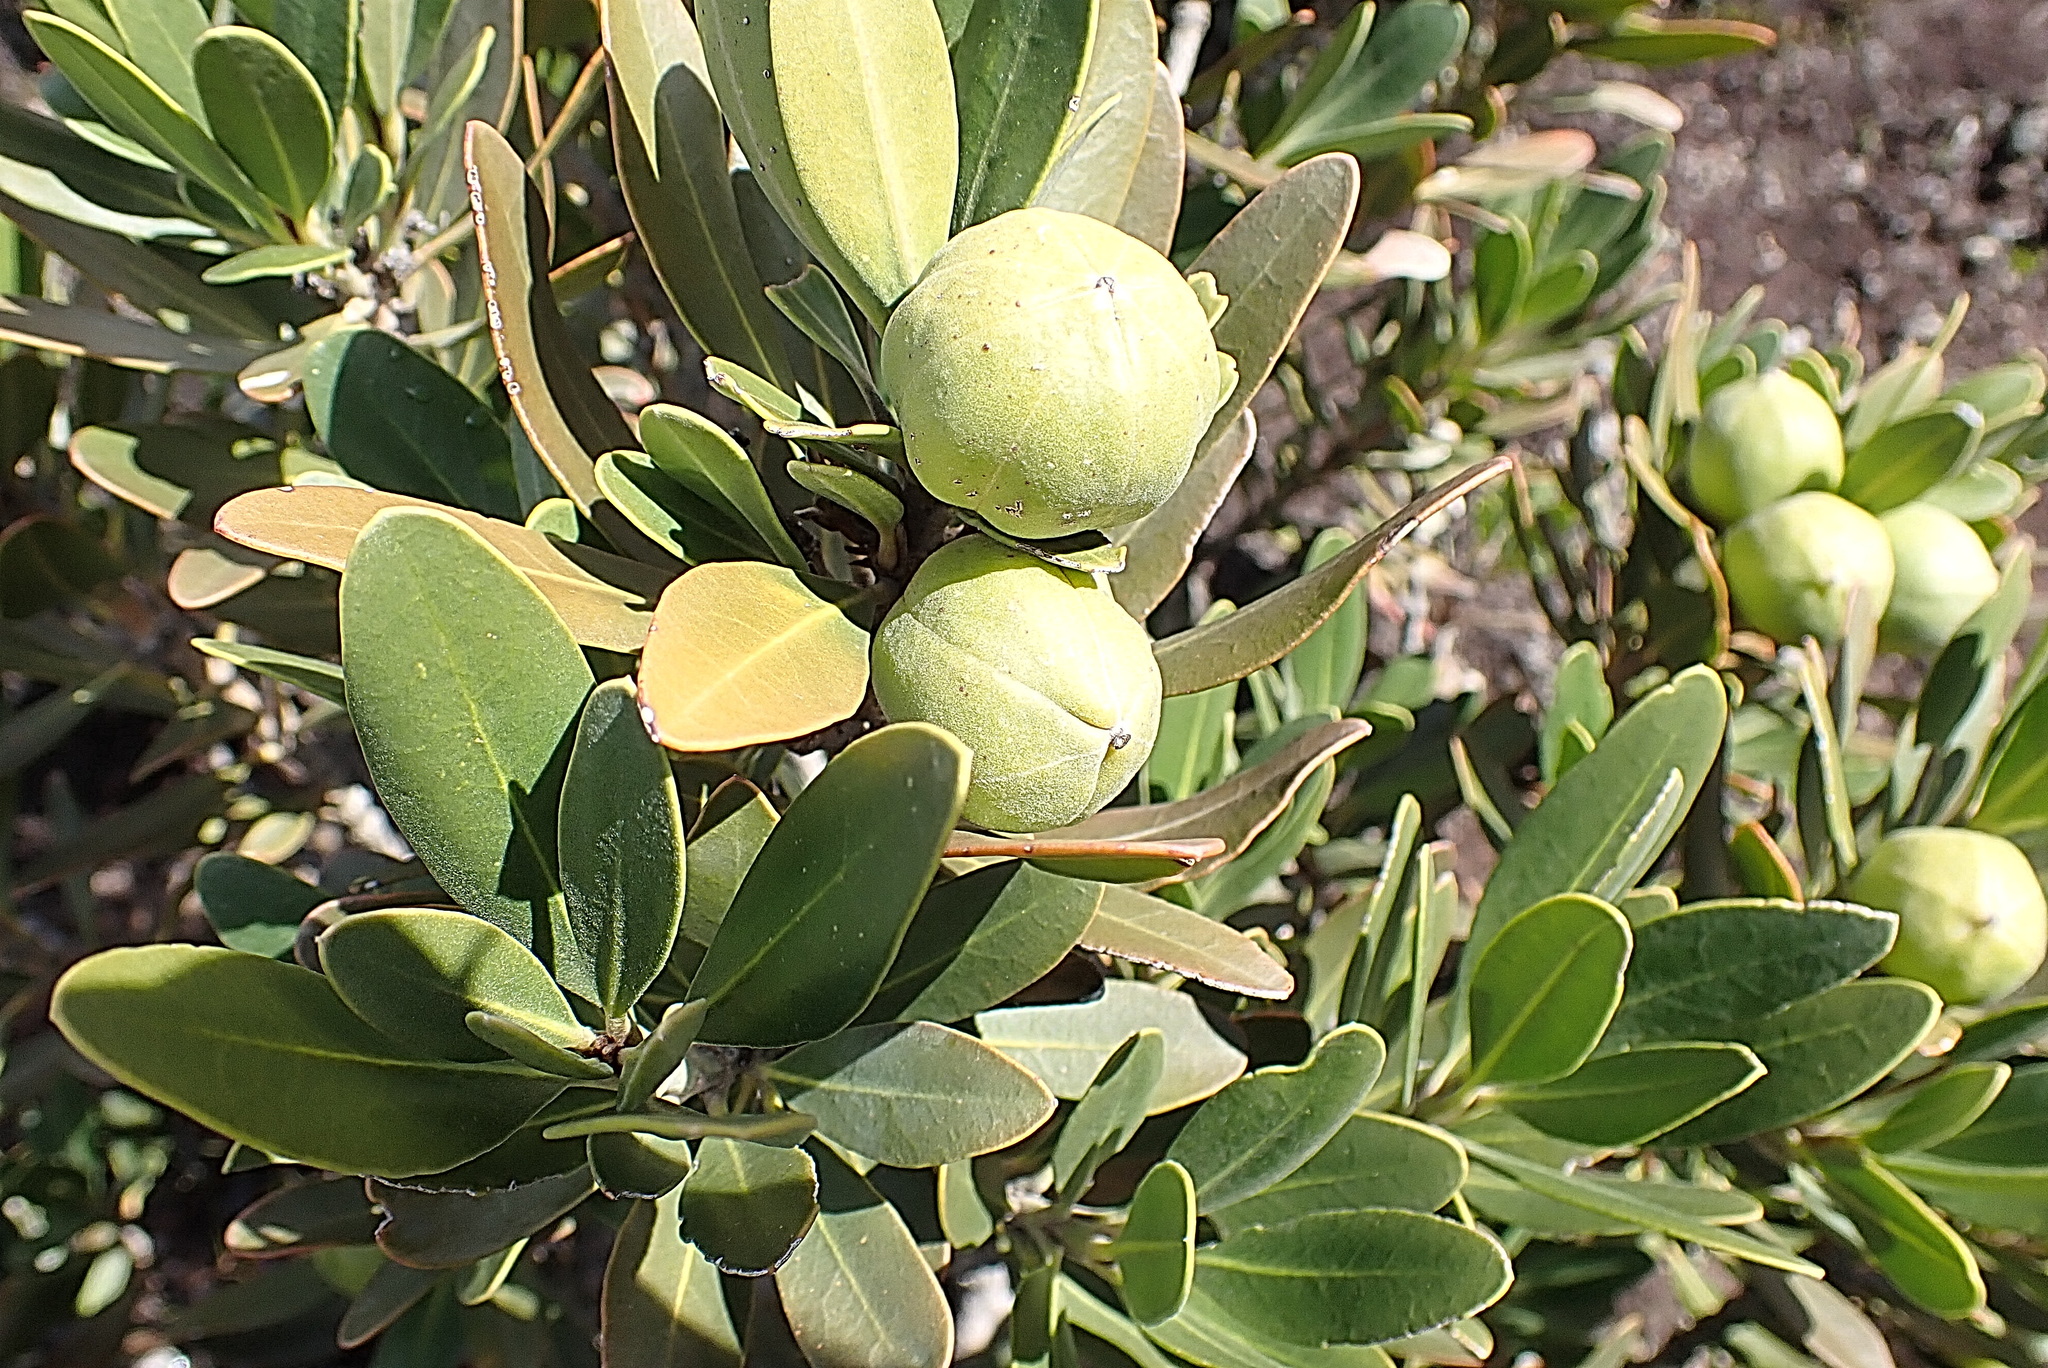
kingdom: Plantae
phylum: Tracheophyta
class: Magnoliopsida
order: Malpighiales
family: Picrodendraceae
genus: Hyaenanche
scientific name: Hyaenanche globosa
